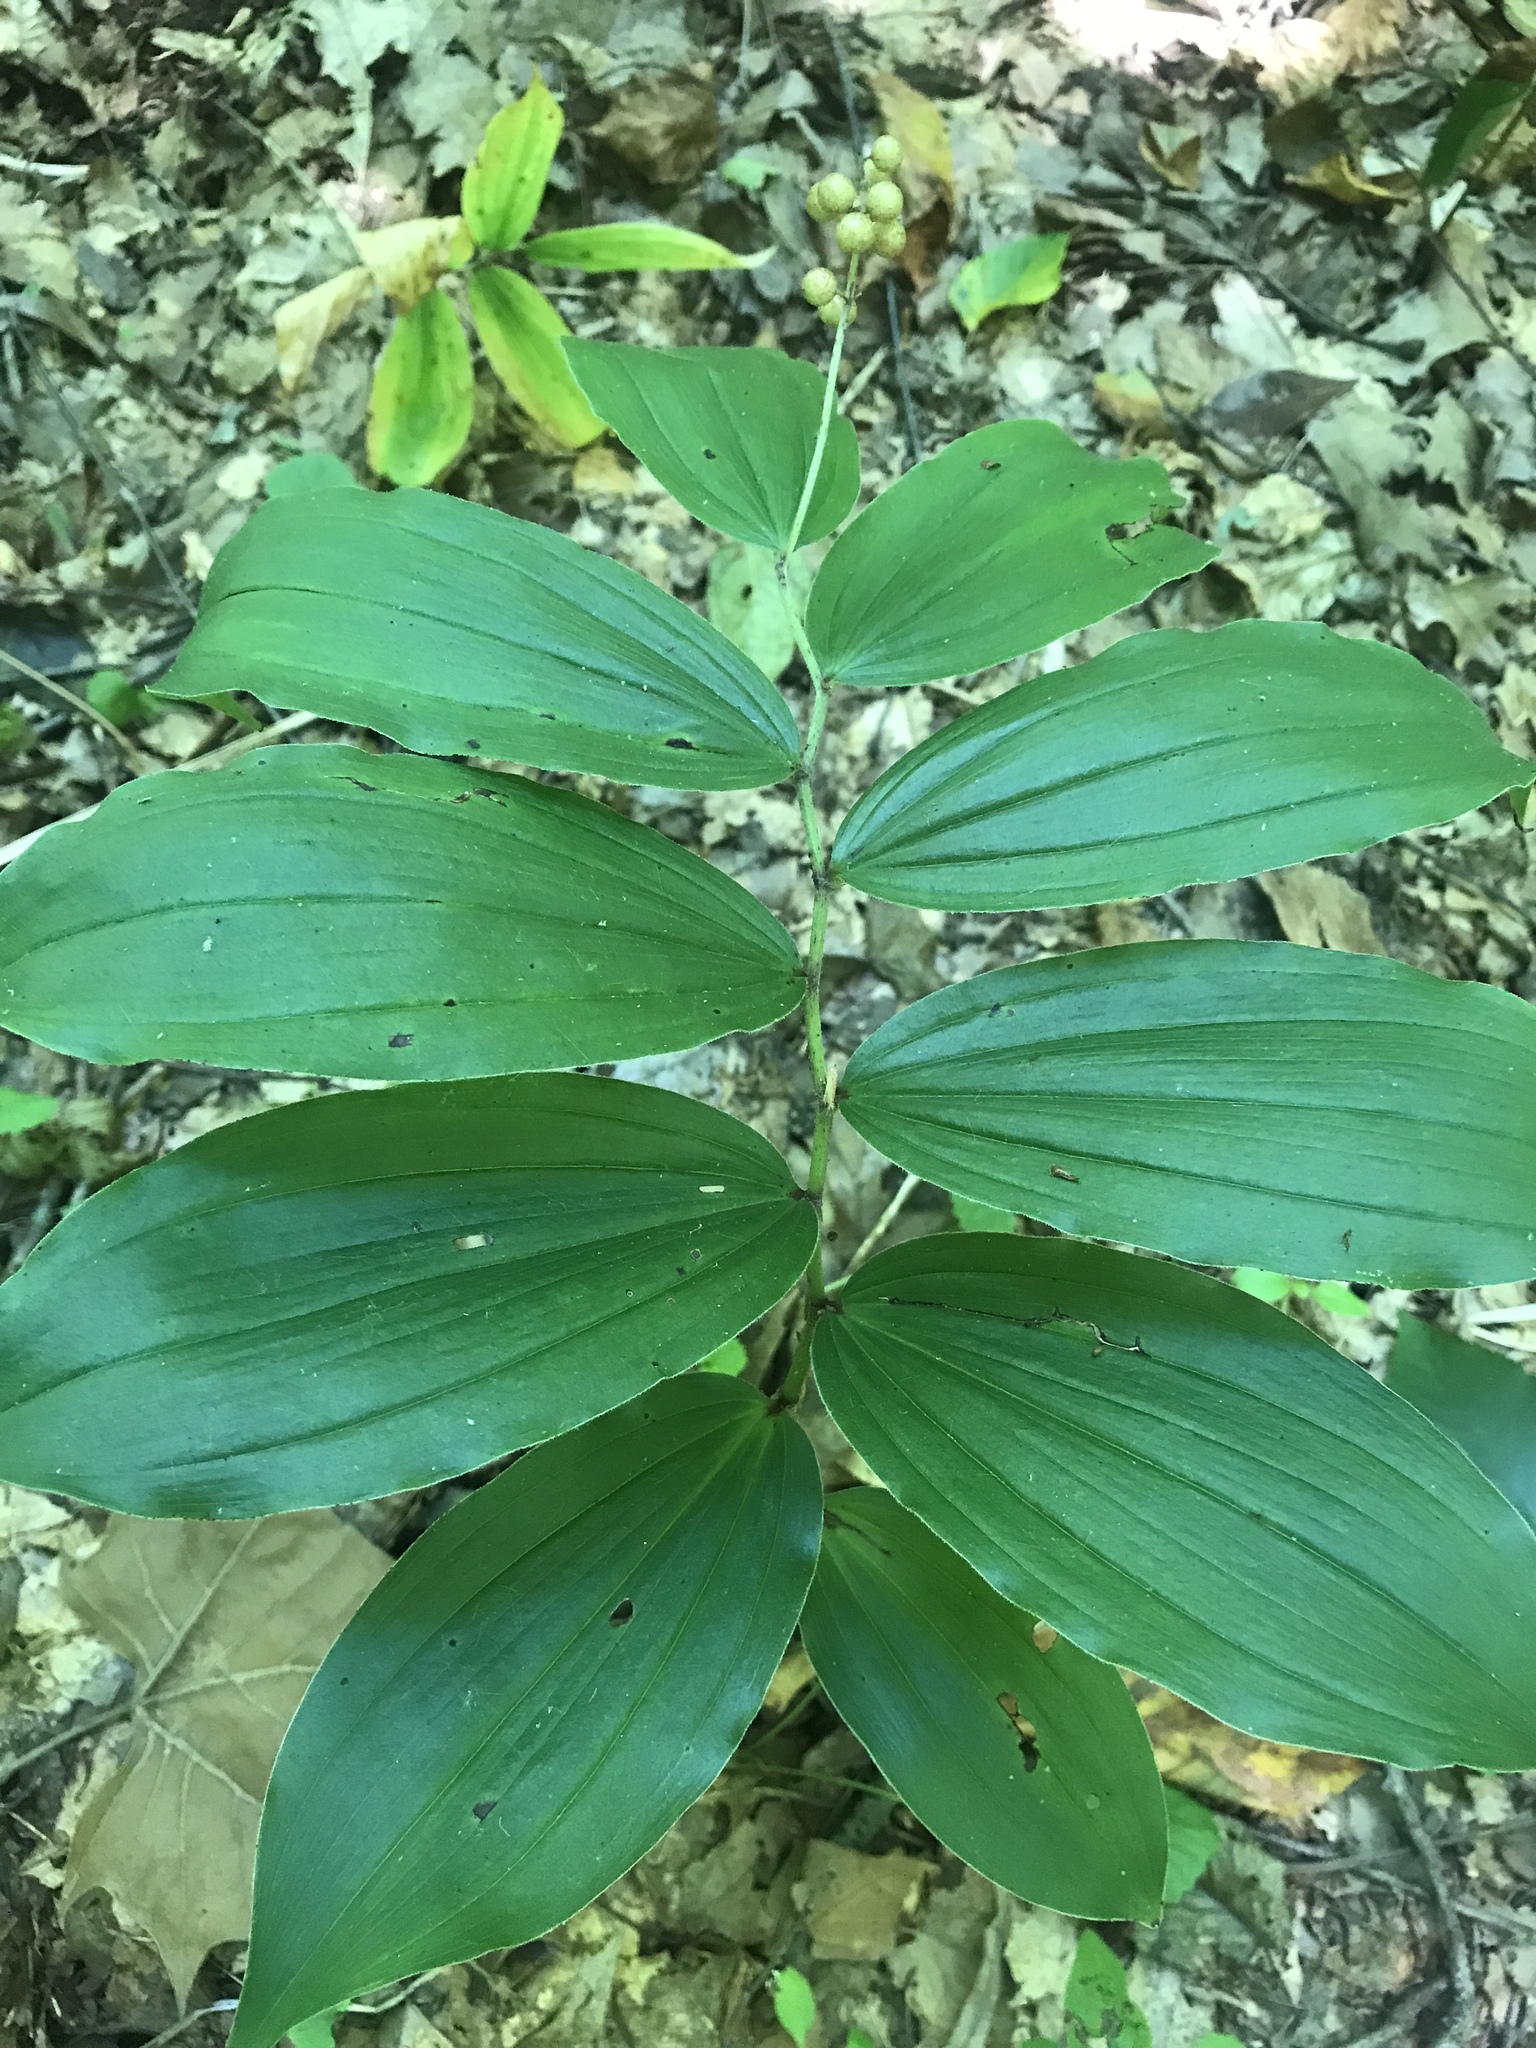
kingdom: Plantae
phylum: Tracheophyta
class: Liliopsida
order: Asparagales
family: Asparagaceae
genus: Maianthemum
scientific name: Maianthemum racemosum
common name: False spikenard
